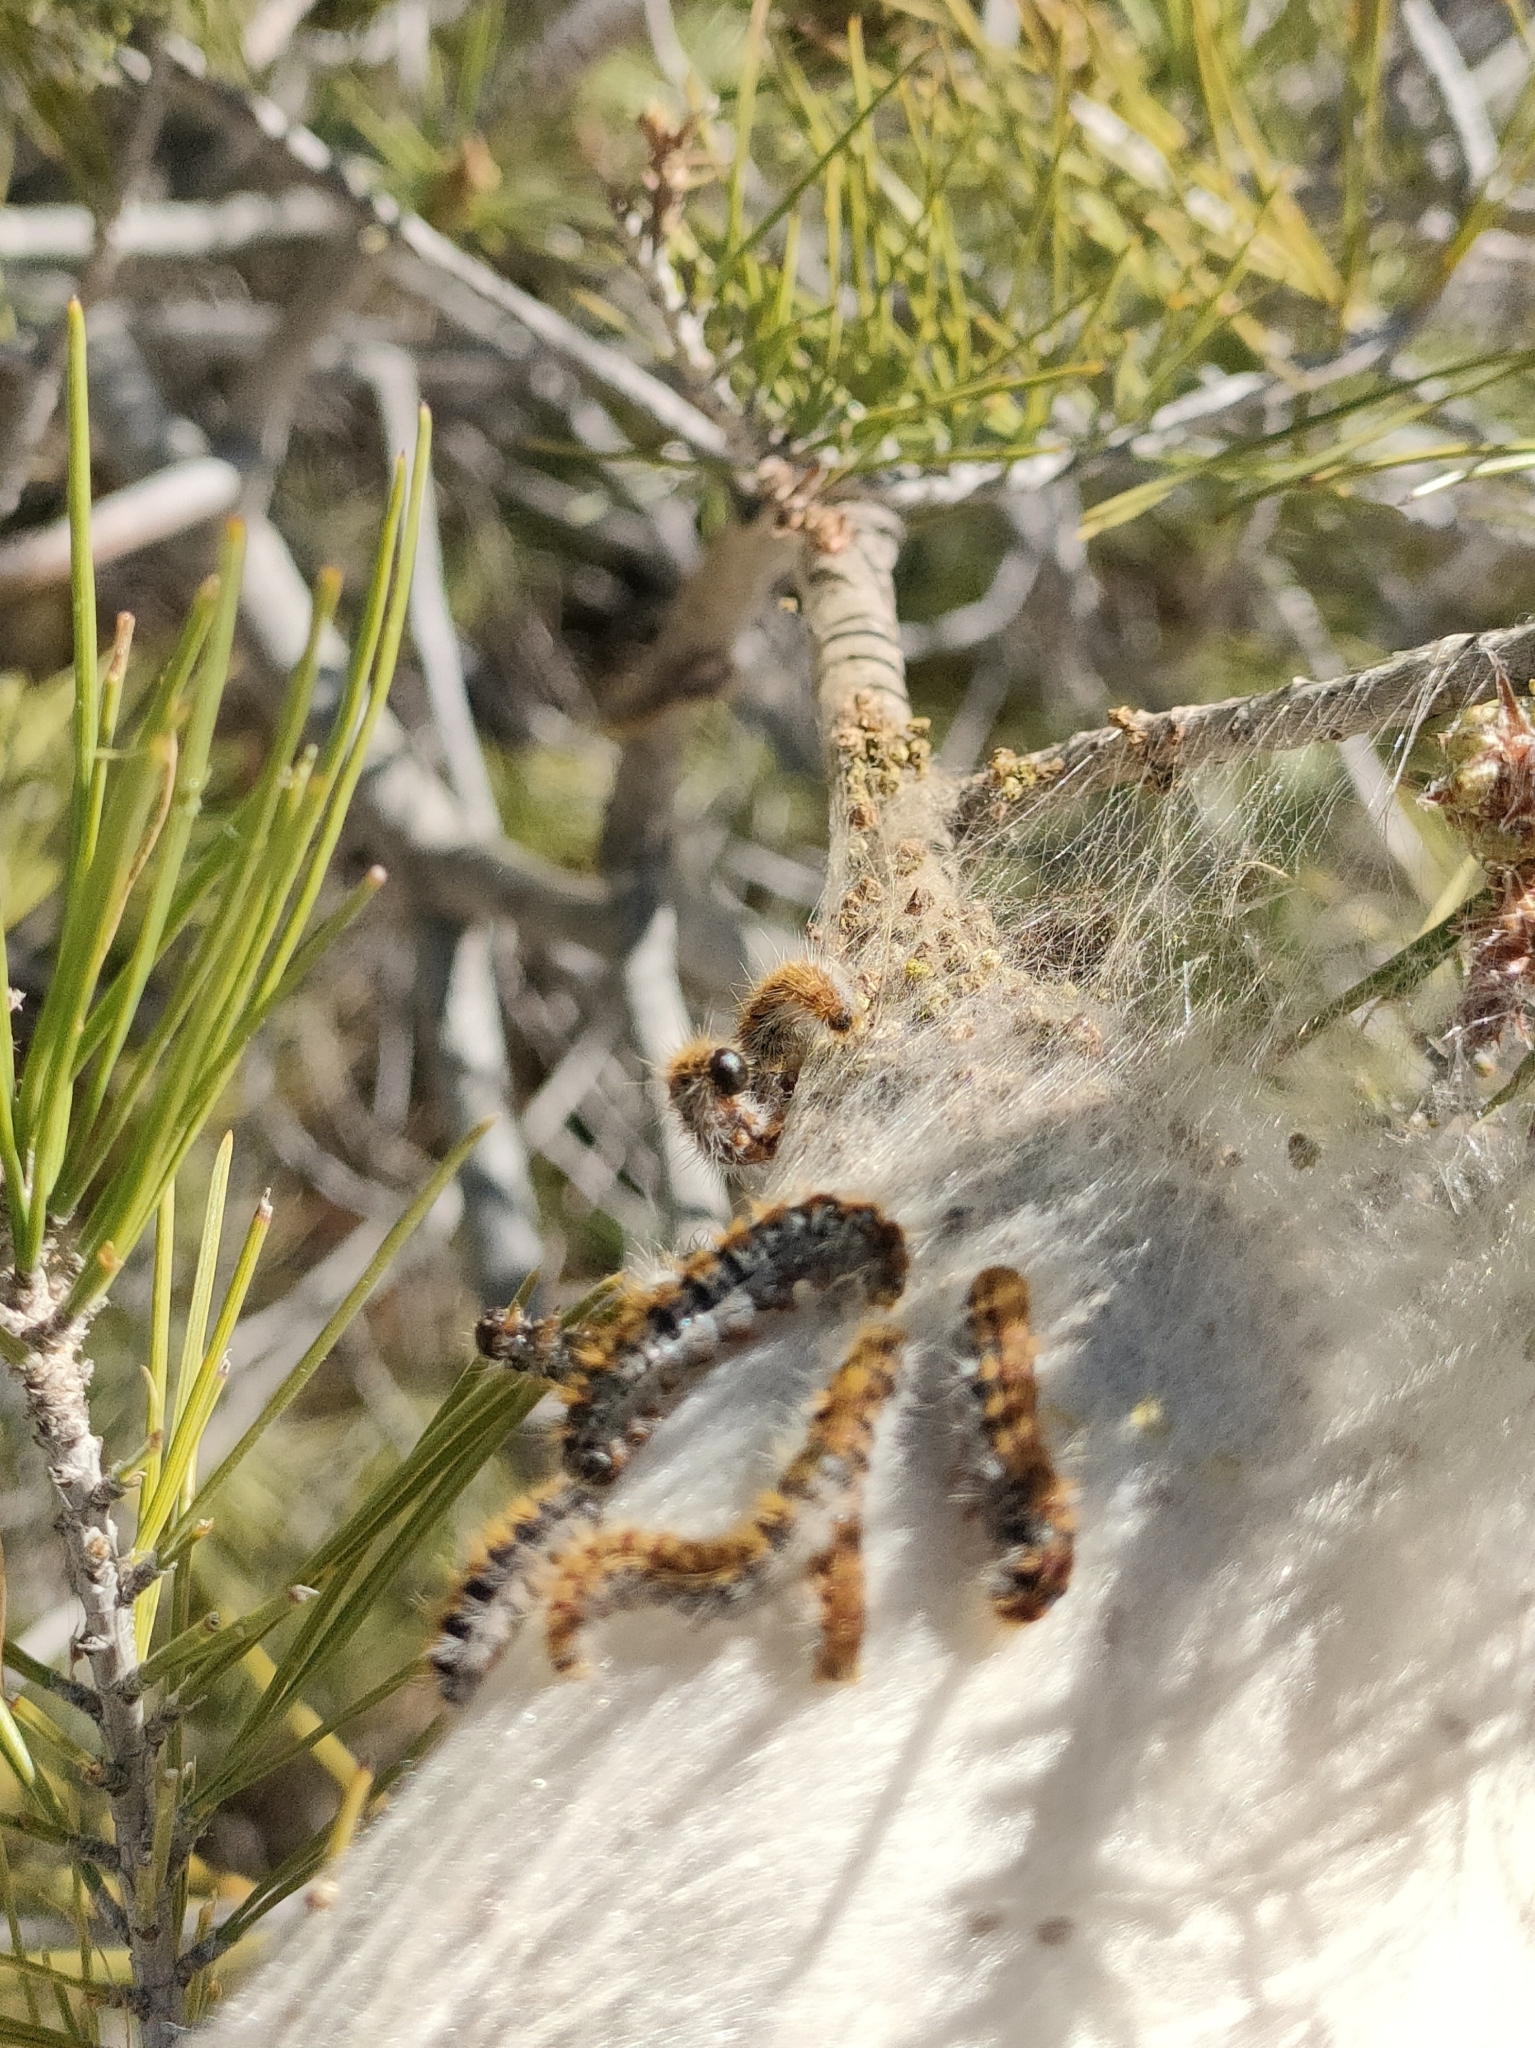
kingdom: Animalia
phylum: Arthropoda
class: Insecta
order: Lepidoptera
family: Notodontidae
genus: Thaumetopoea
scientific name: Thaumetopoea pityocampa
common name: Pine processionary
